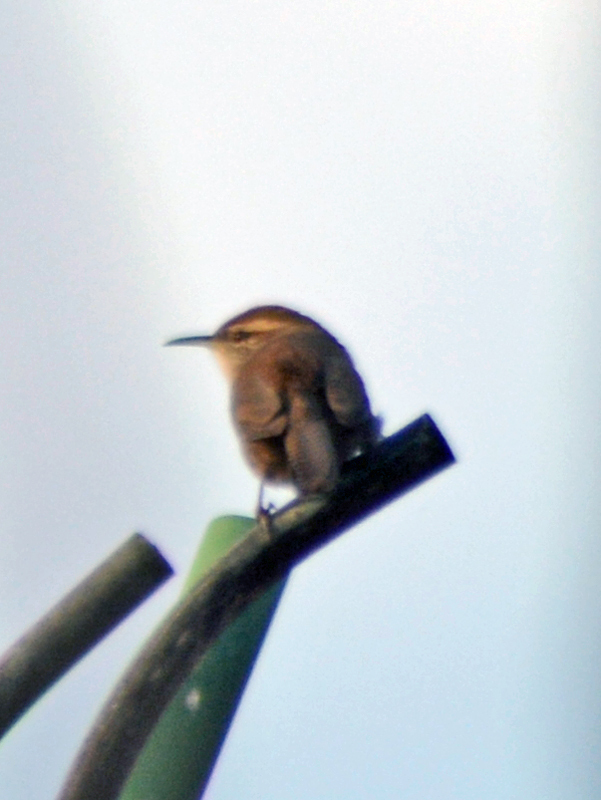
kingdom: Animalia
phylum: Chordata
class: Aves
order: Passeriformes
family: Troglodytidae
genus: Thryomanes
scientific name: Thryomanes bewickii
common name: Bewick's wren
